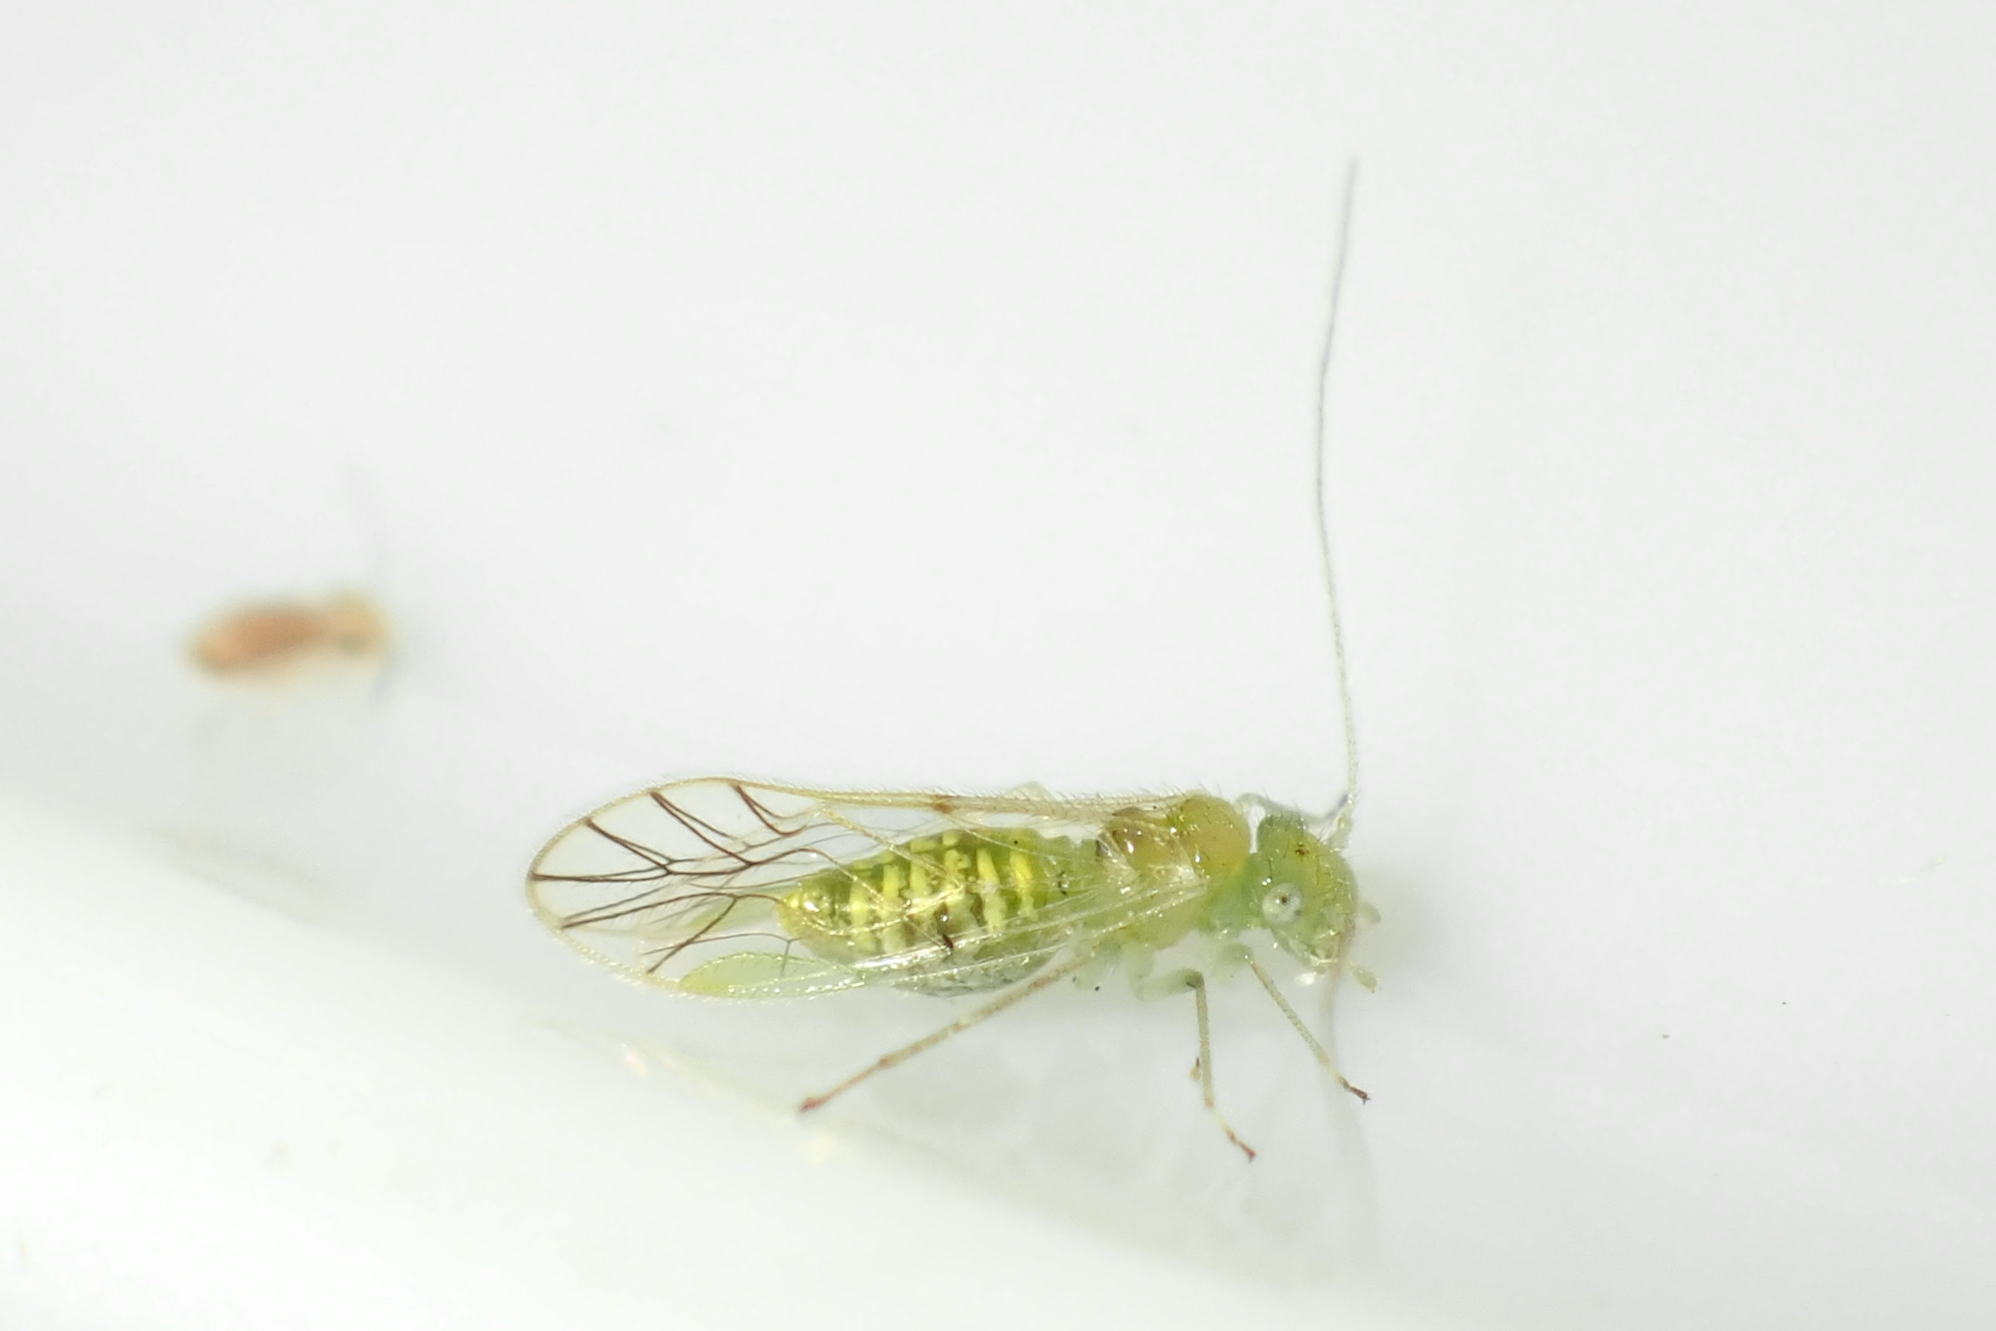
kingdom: Animalia
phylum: Arthropoda
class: Insecta
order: Psocodea
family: Pseudocaeciliidae
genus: Austropsocus
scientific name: Austropsocus viridis
